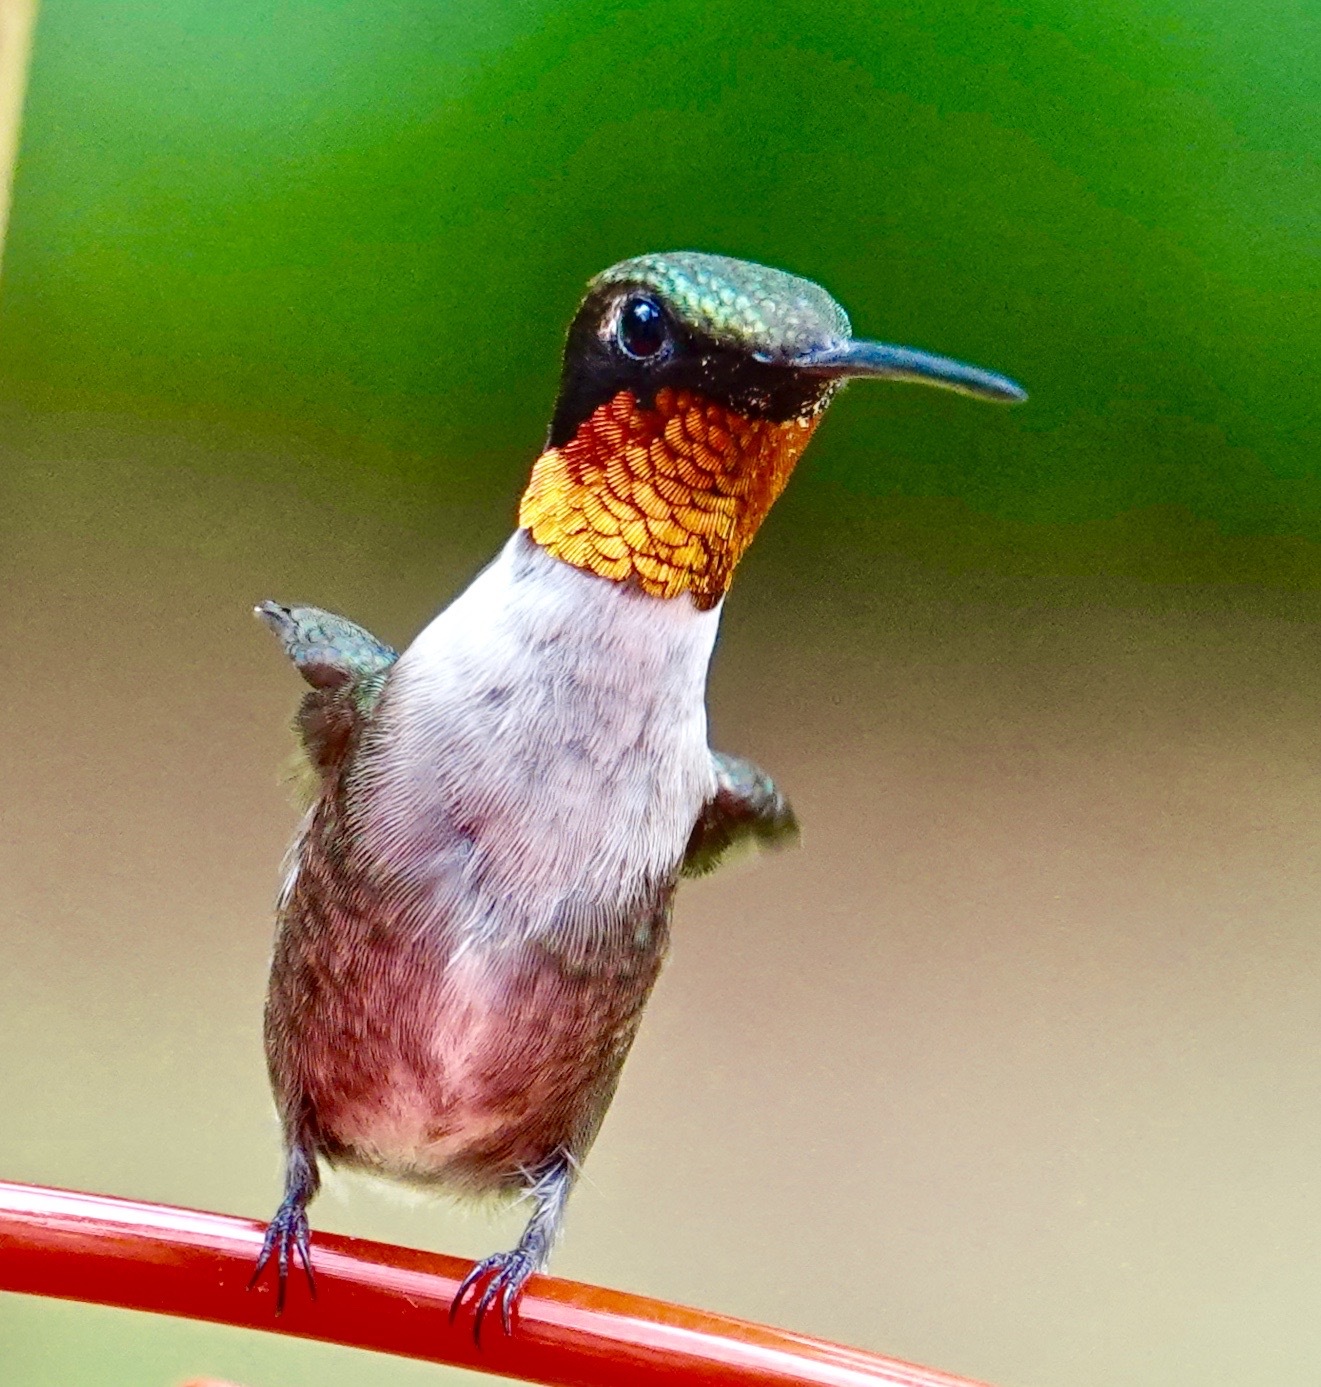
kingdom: Animalia
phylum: Chordata
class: Aves
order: Apodiformes
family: Trochilidae
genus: Archilochus
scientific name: Archilochus colubris
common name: Ruby-throated hummingbird
